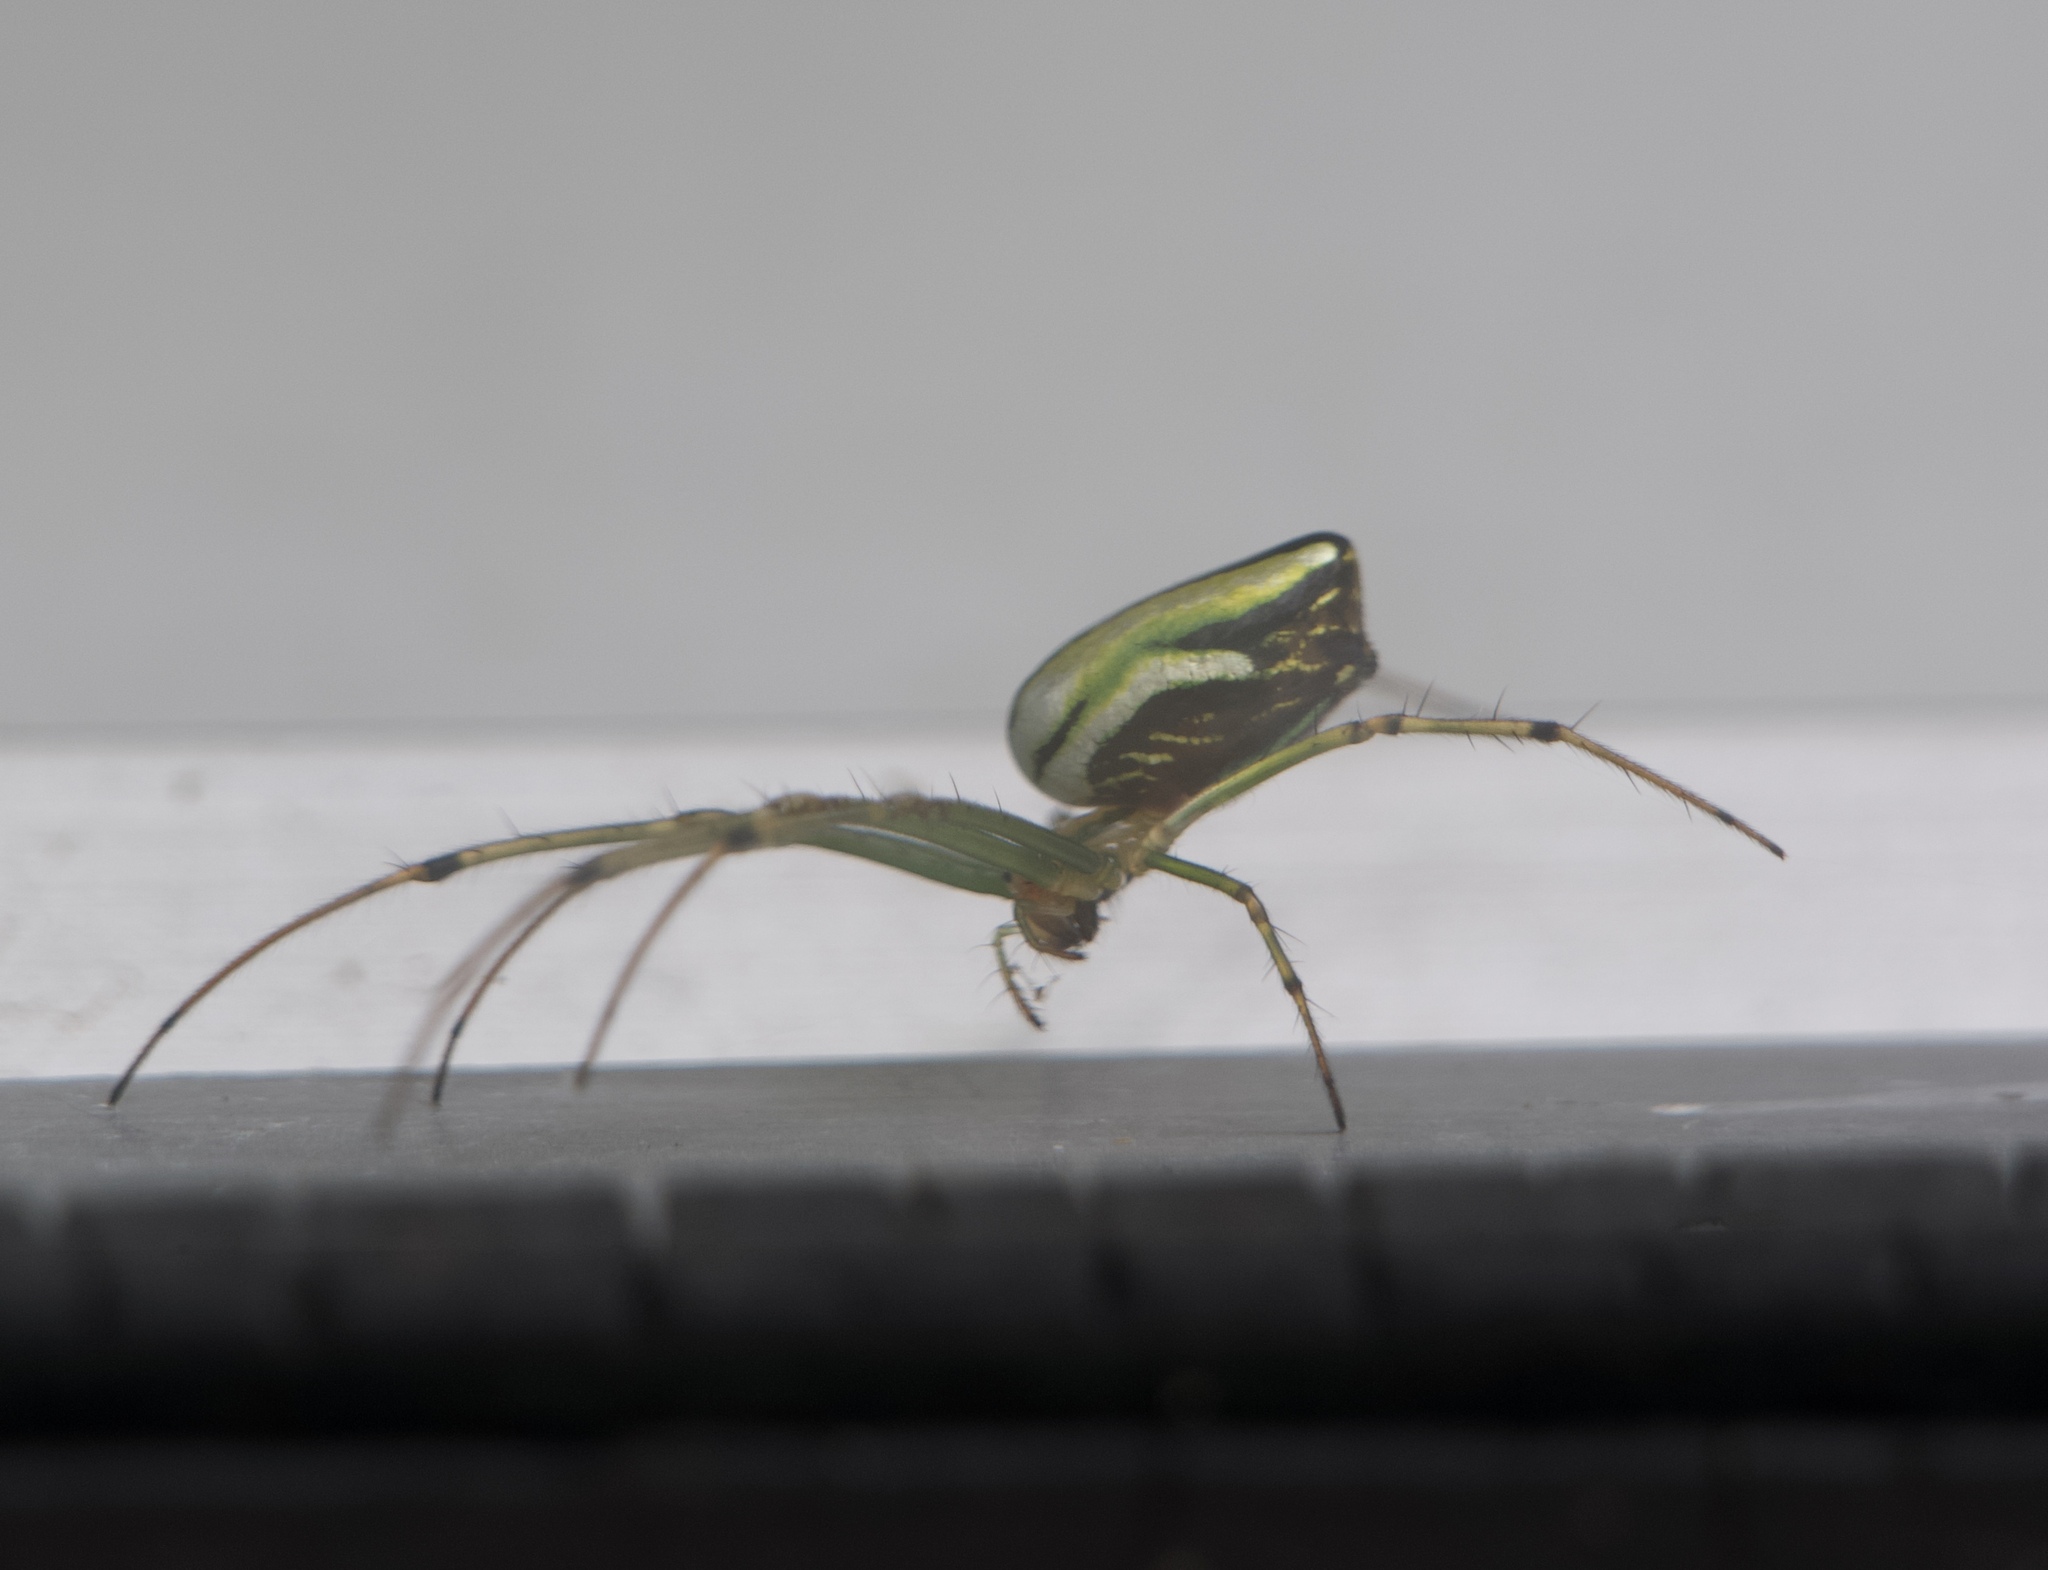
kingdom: Animalia
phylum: Arthropoda
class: Arachnida
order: Araneae
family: Tetragnathidae
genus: Leucauge
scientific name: Leucauge celebesiana
